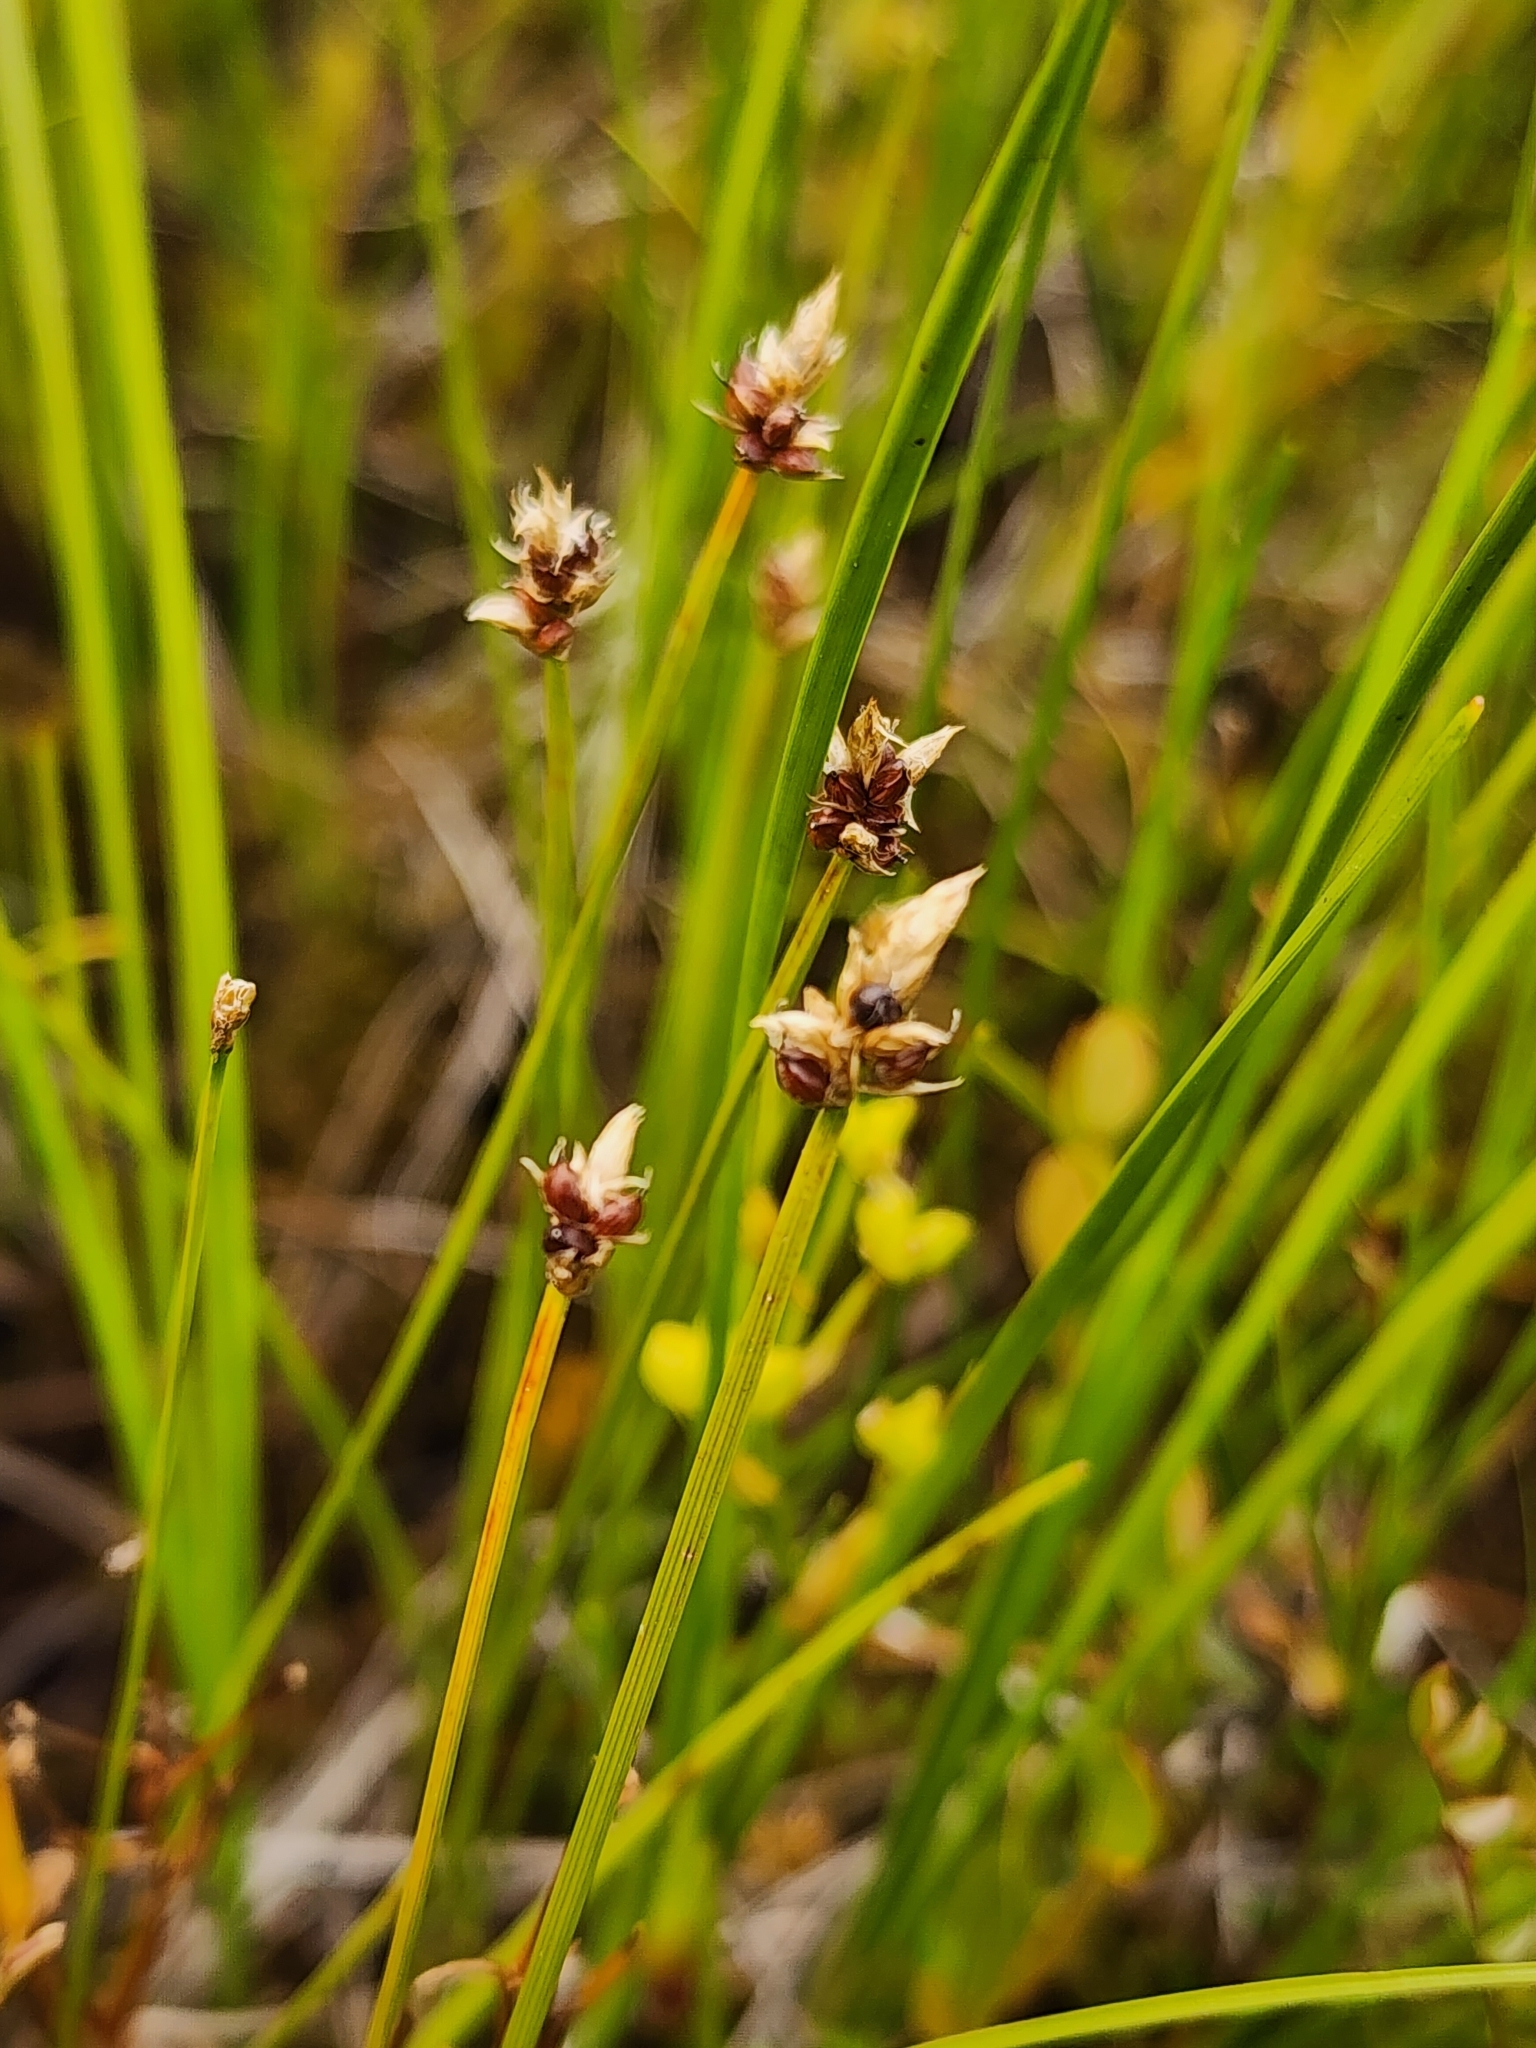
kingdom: Plantae
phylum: Tracheophyta
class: Liliopsida
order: Poales
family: Cyperaceae
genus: Carex
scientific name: Carex chordorrhiza
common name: String sedge
